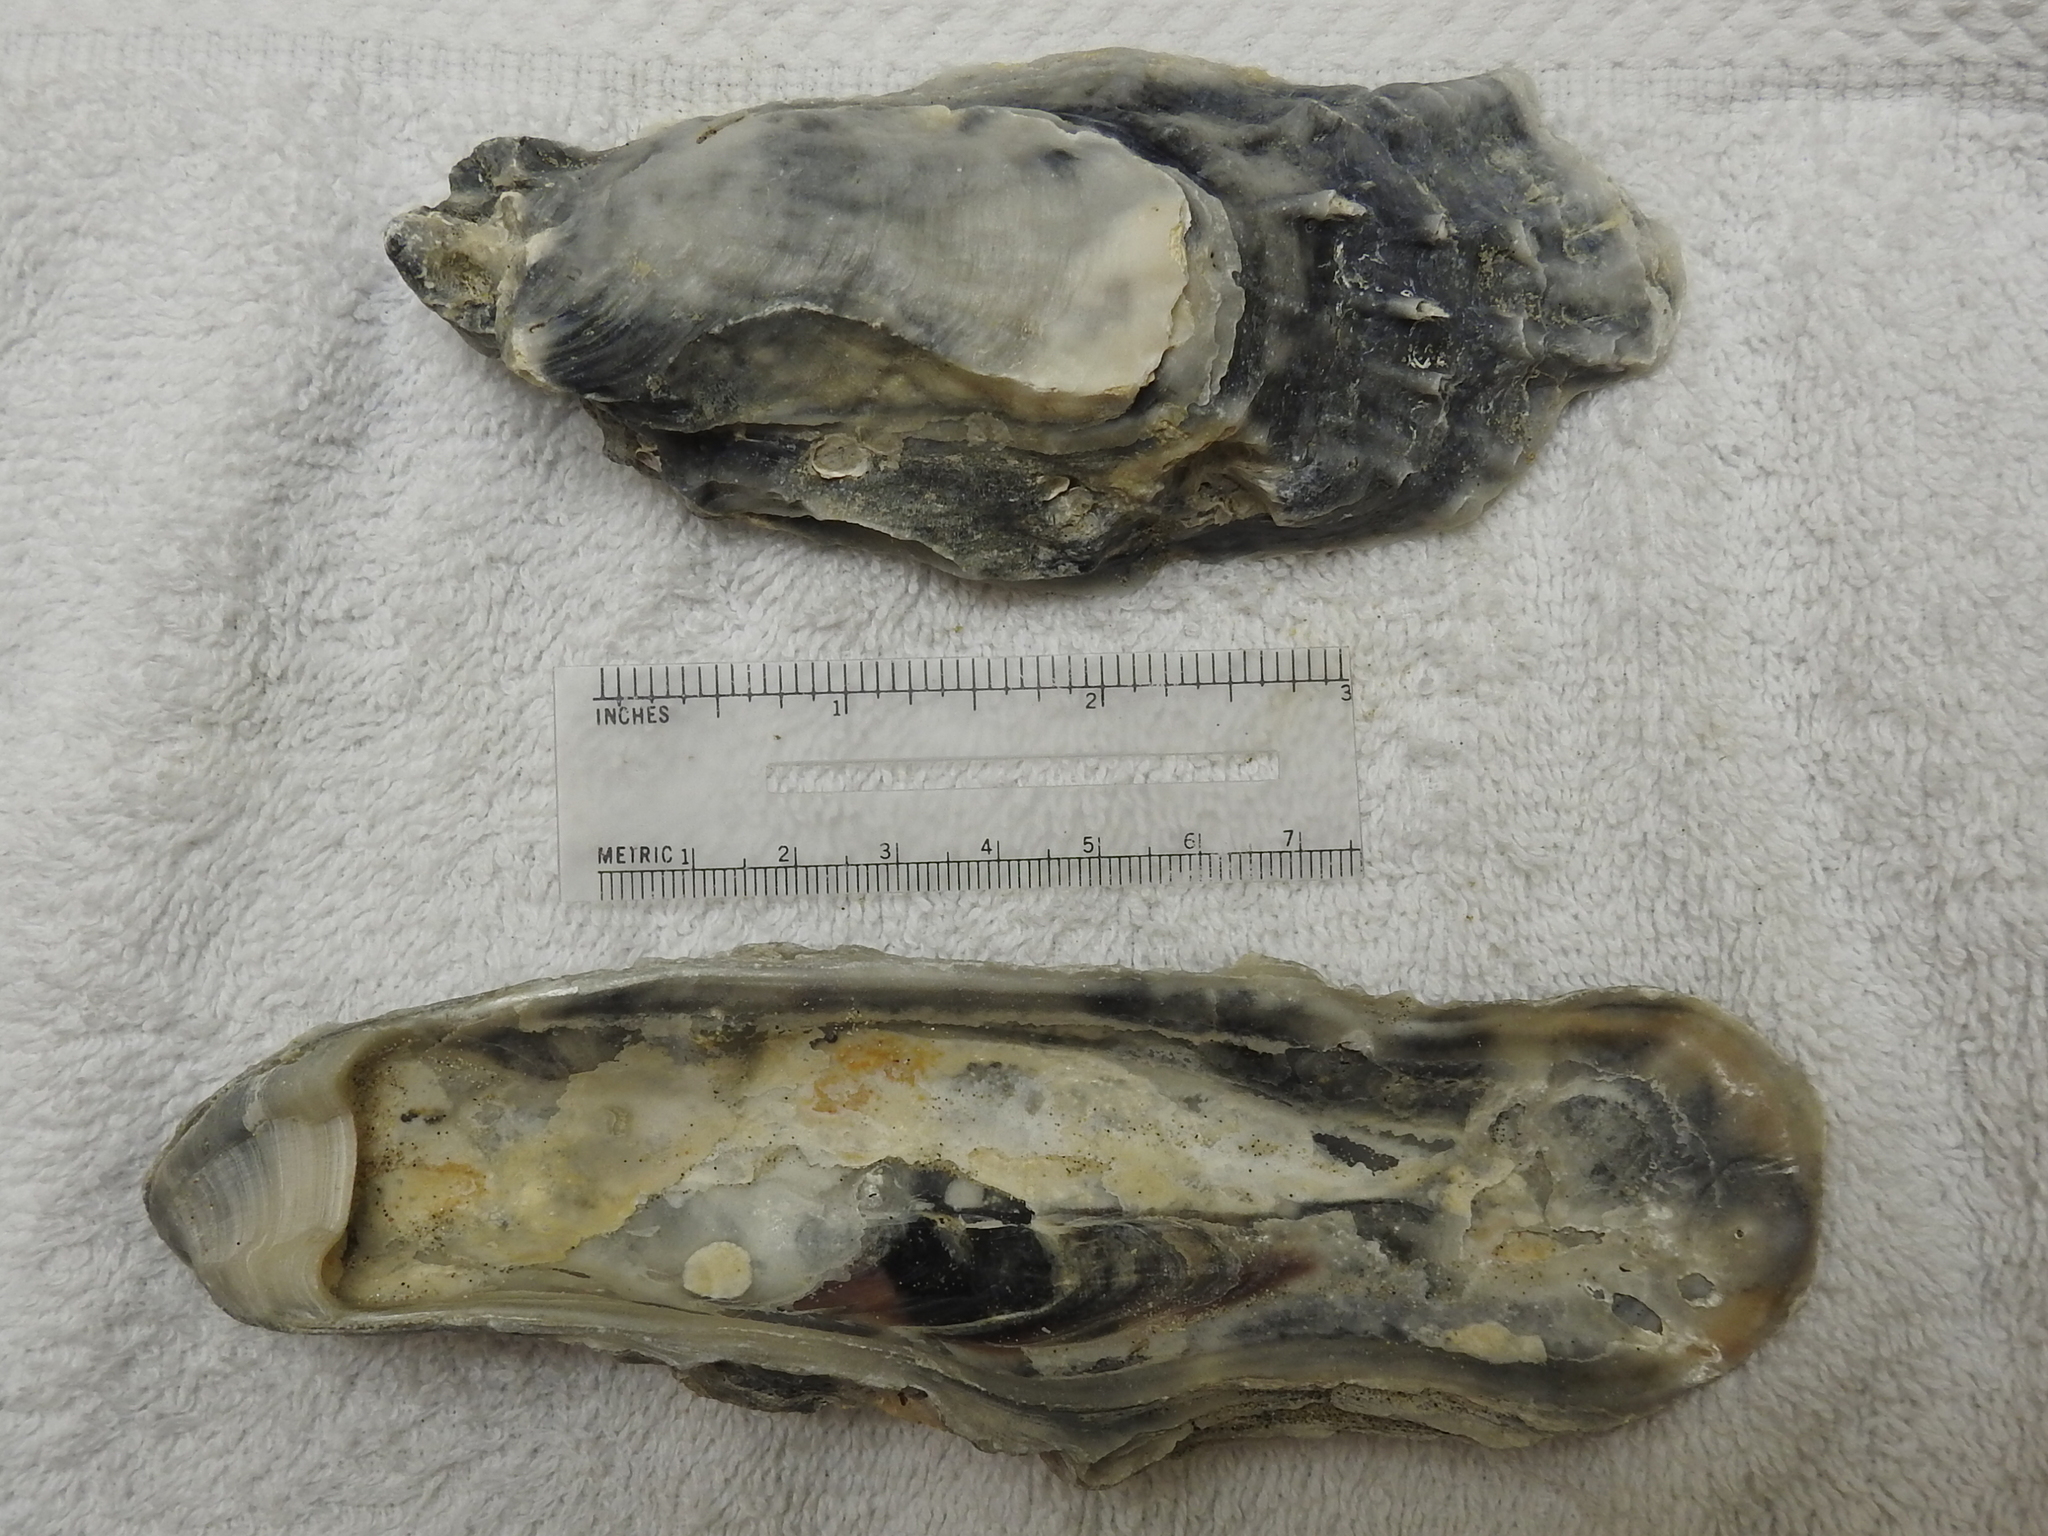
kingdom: Animalia
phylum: Mollusca
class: Bivalvia
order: Ostreida
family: Ostreidae
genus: Crassostrea
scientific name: Crassostrea virginica
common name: American oyster
